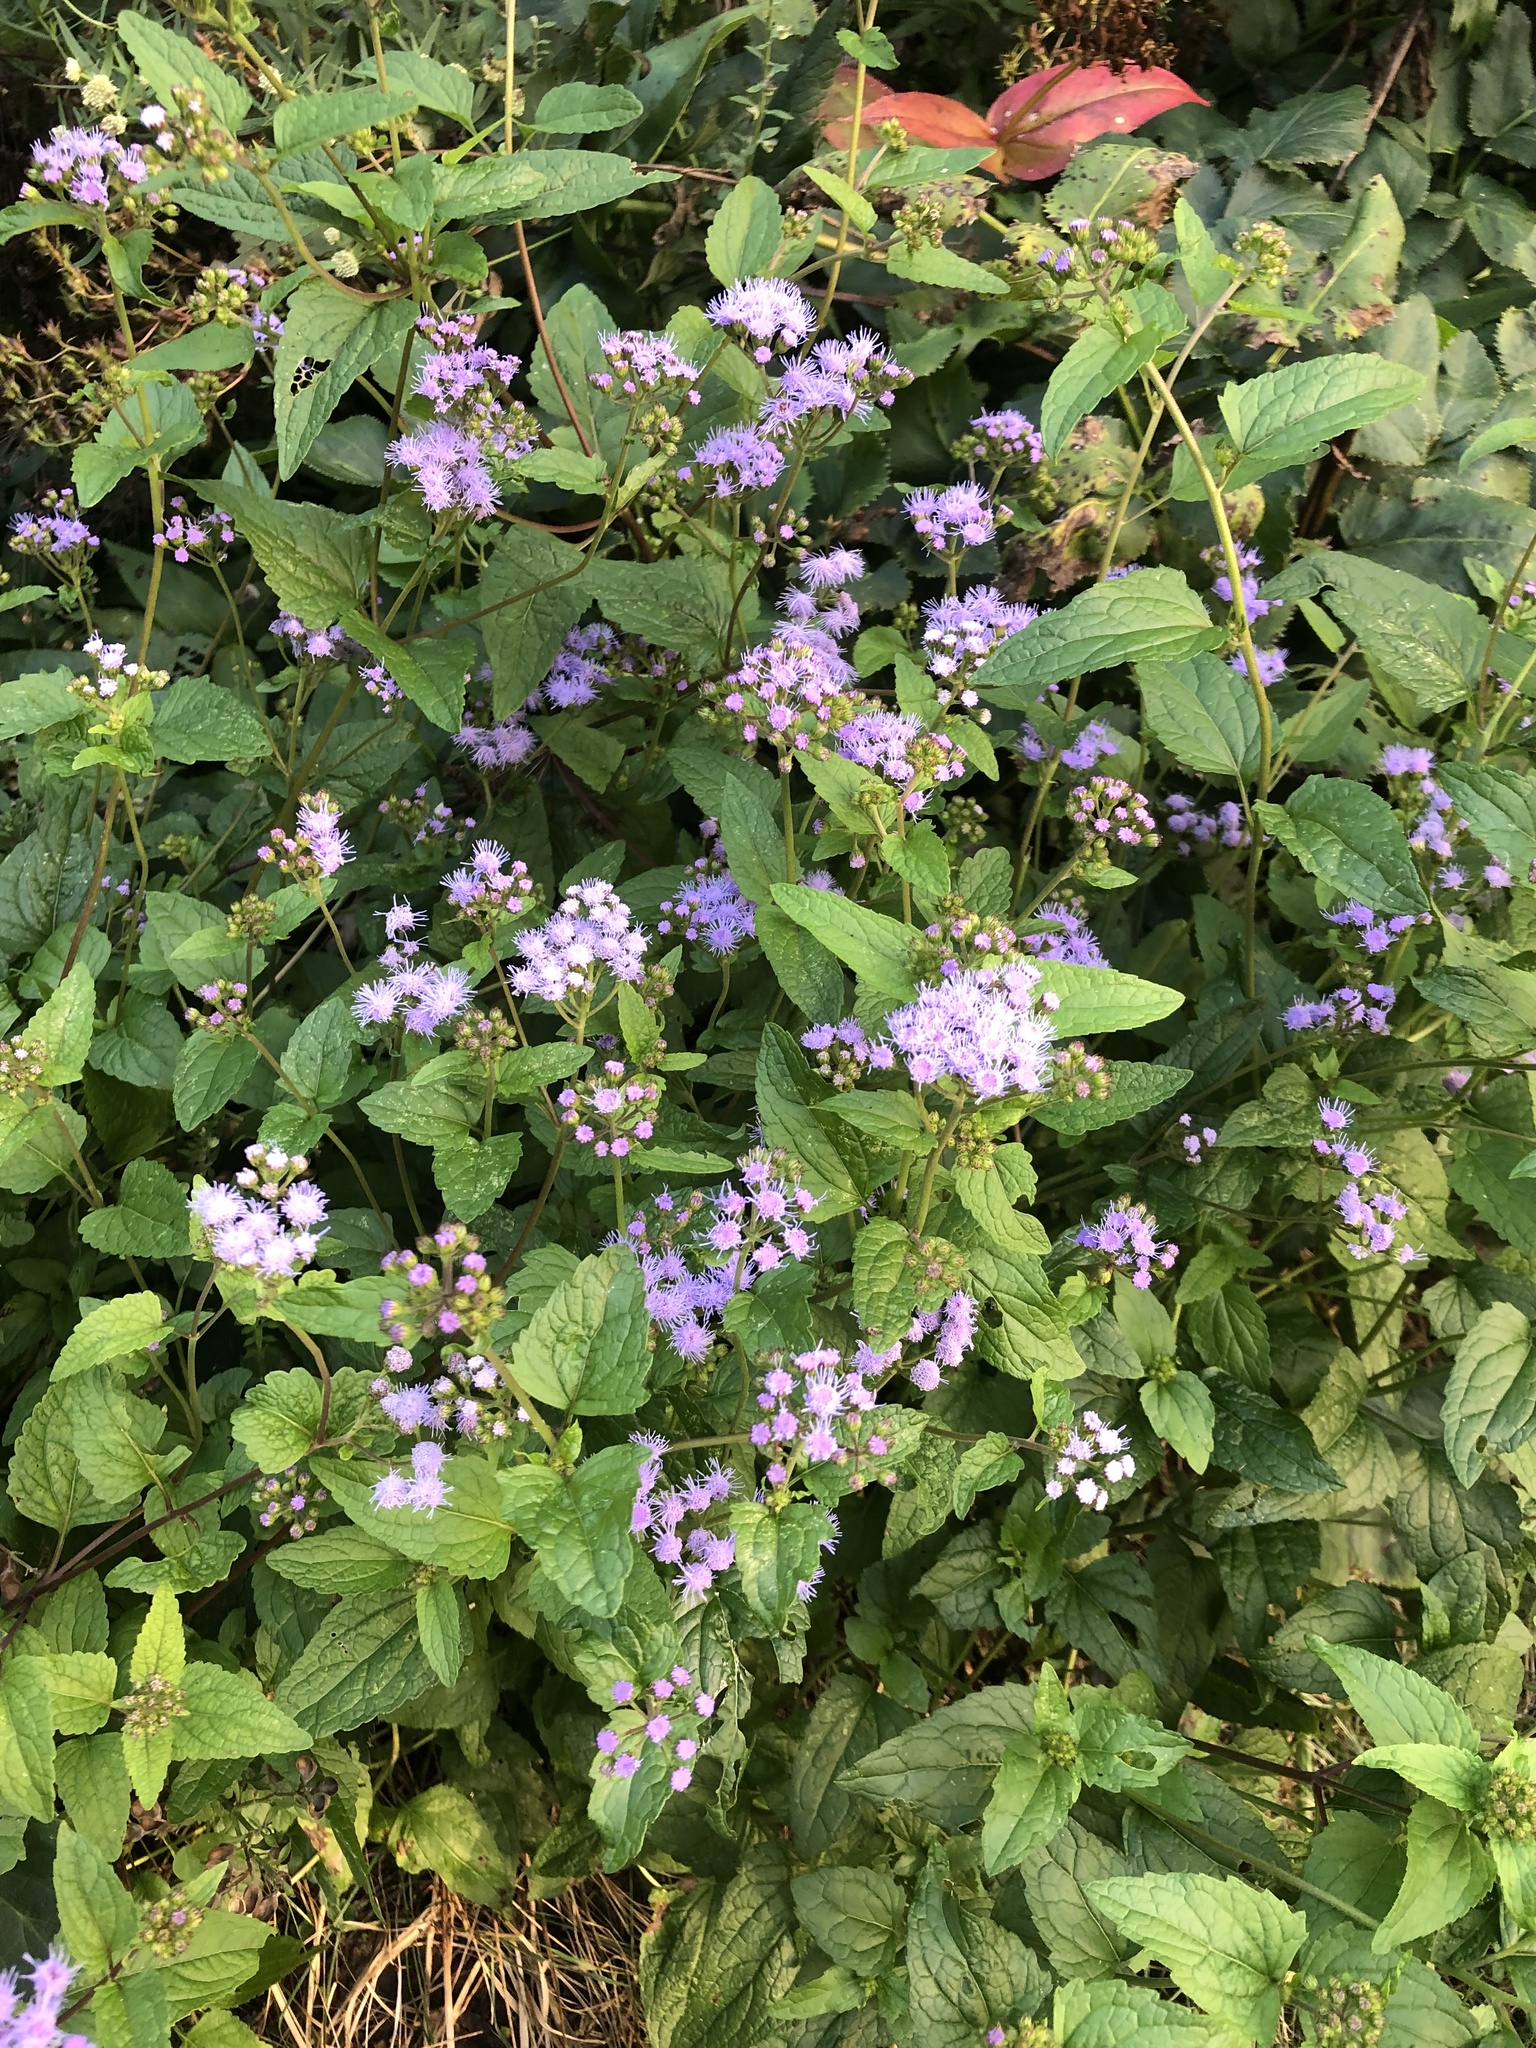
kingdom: Plantae
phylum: Tracheophyta
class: Magnoliopsida
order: Asterales
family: Asteraceae
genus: Conoclinium
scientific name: Conoclinium coelestinum
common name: Blue mistflower
